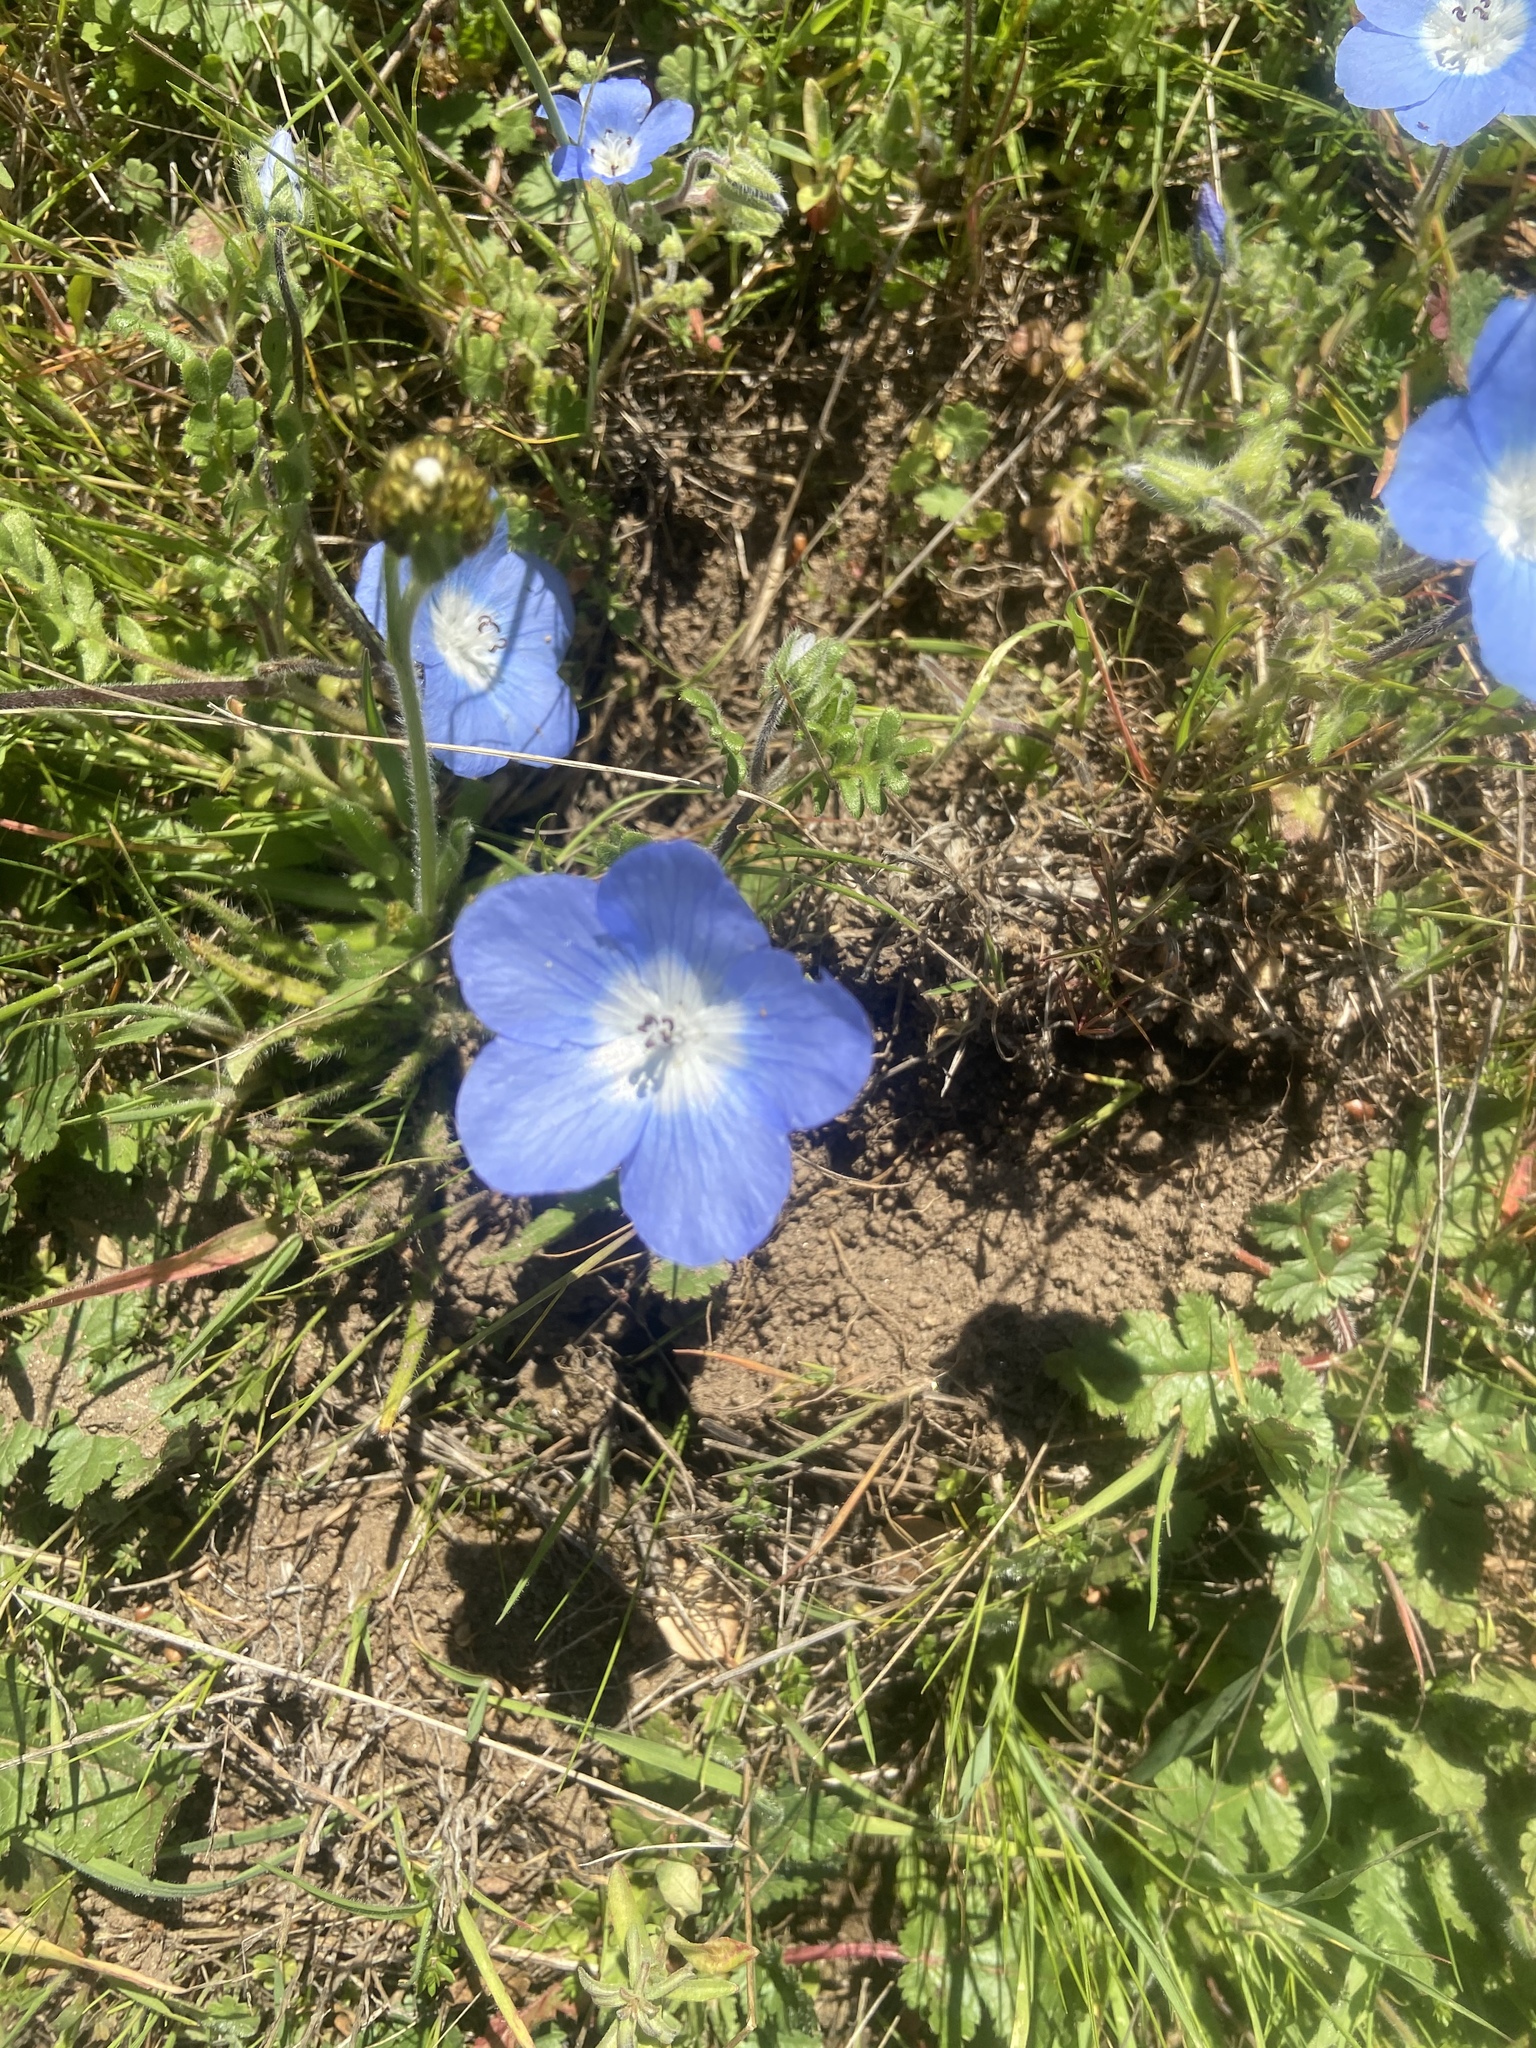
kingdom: Plantae
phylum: Tracheophyta
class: Magnoliopsida
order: Boraginales
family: Hydrophyllaceae
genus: Nemophila
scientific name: Nemophila menziesii
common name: Baby's-blue-eyes
